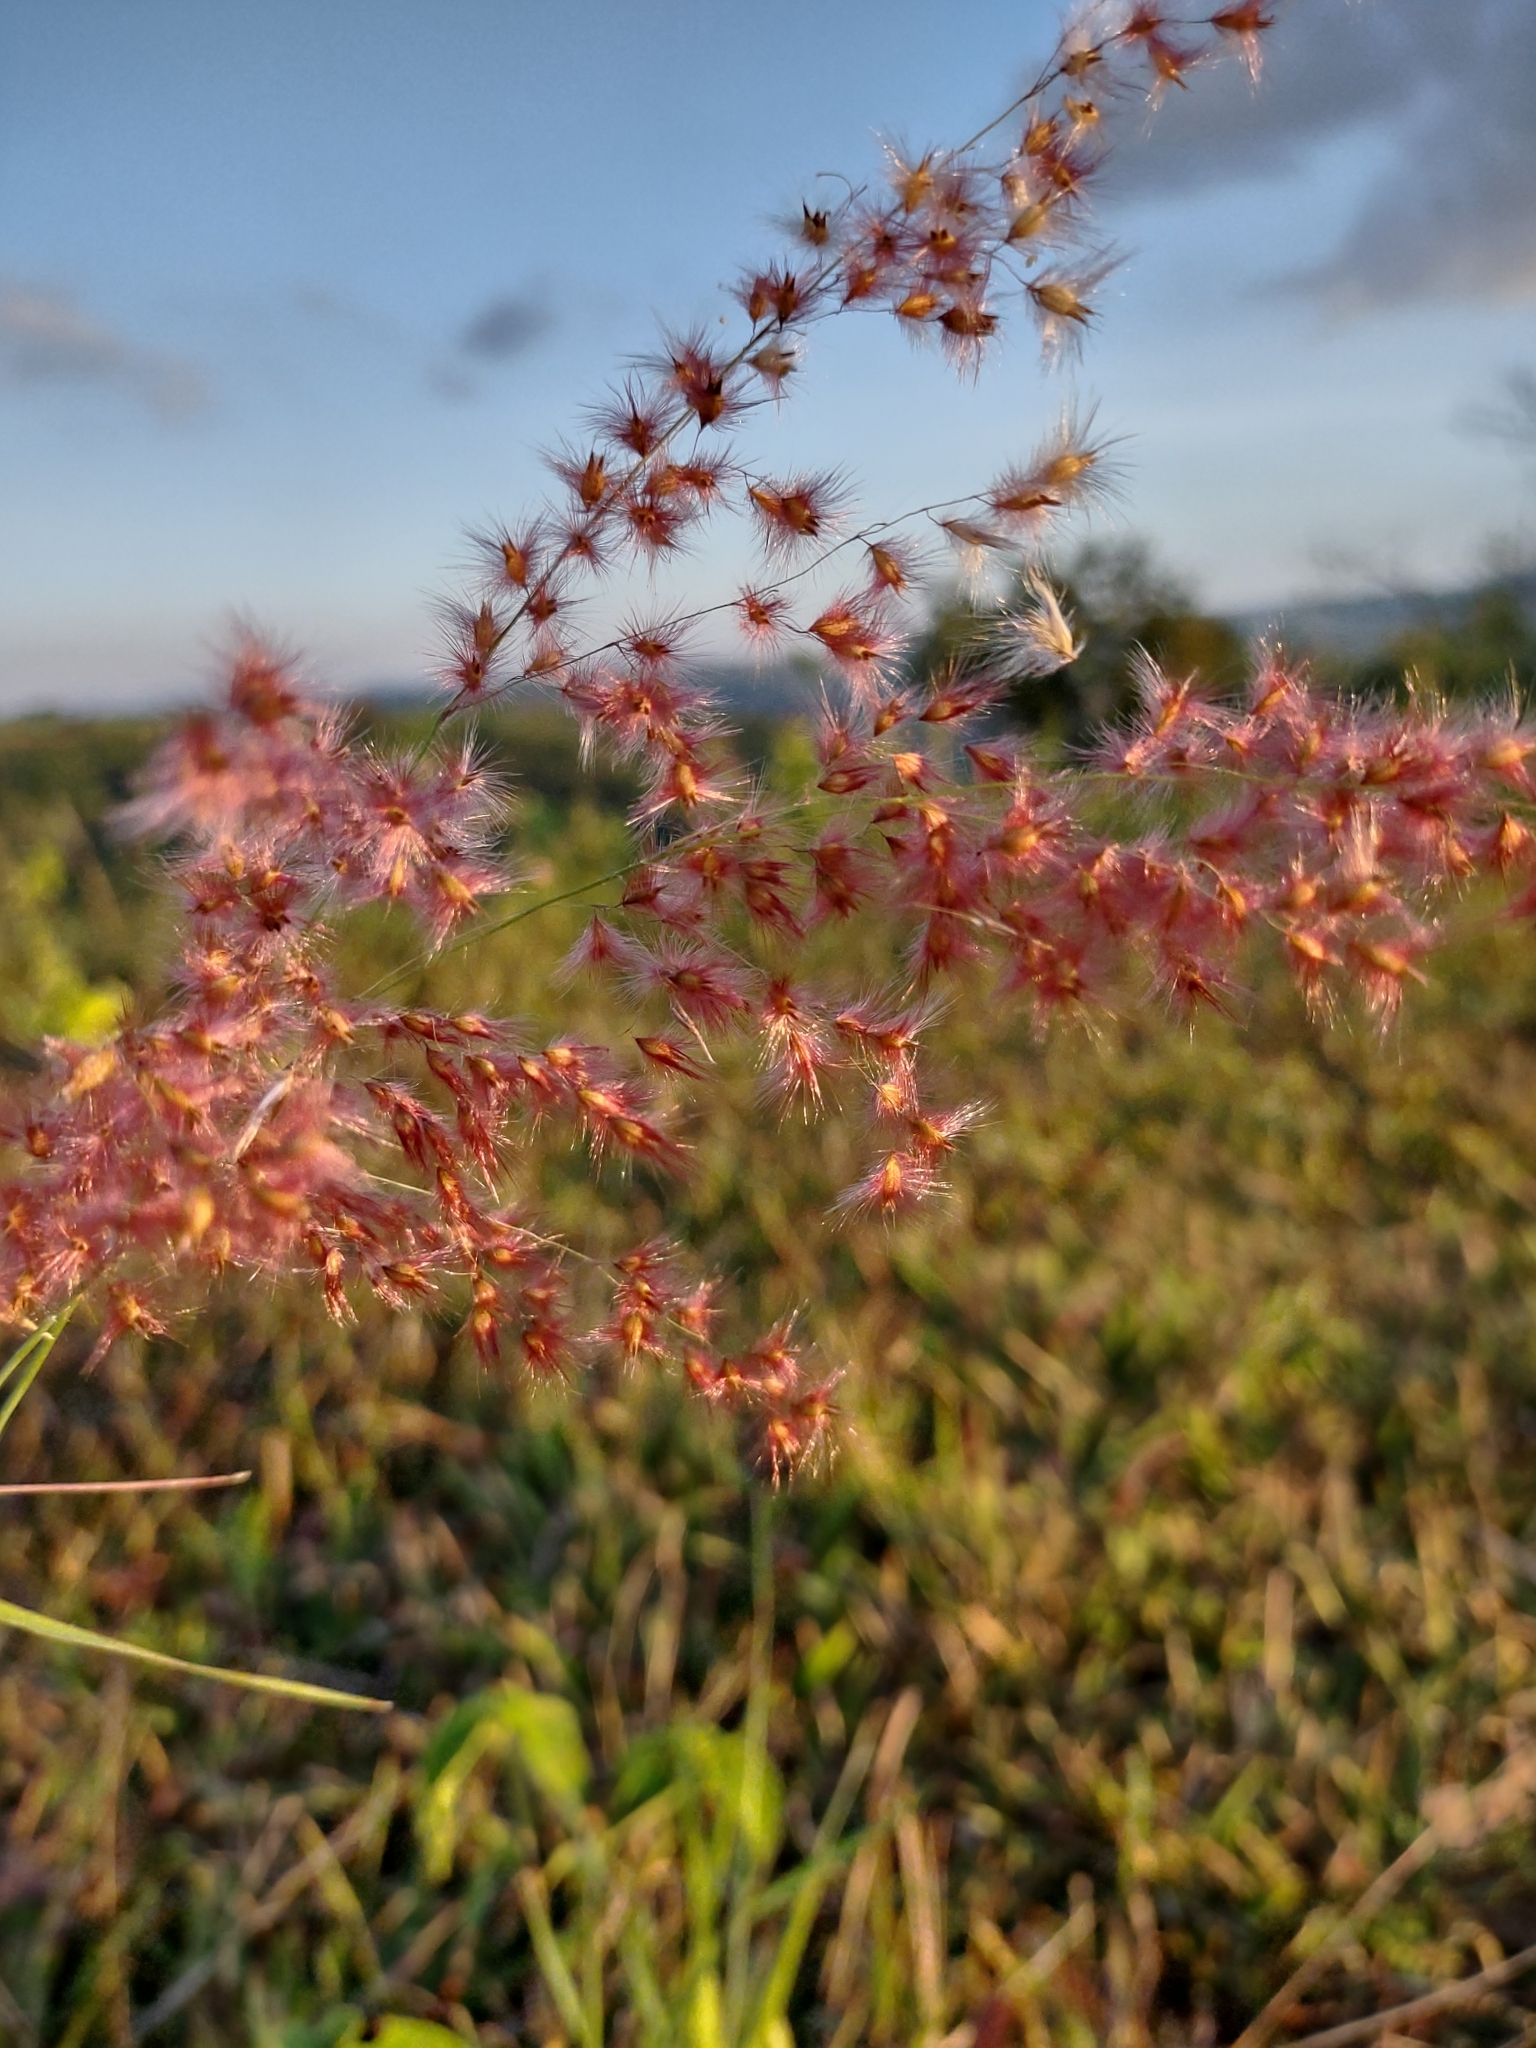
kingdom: Plantae
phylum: Tracheophyta
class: Liliopsida
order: Poales
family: Poaceae
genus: Melinis
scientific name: Melinis repens
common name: Rose natal grass
